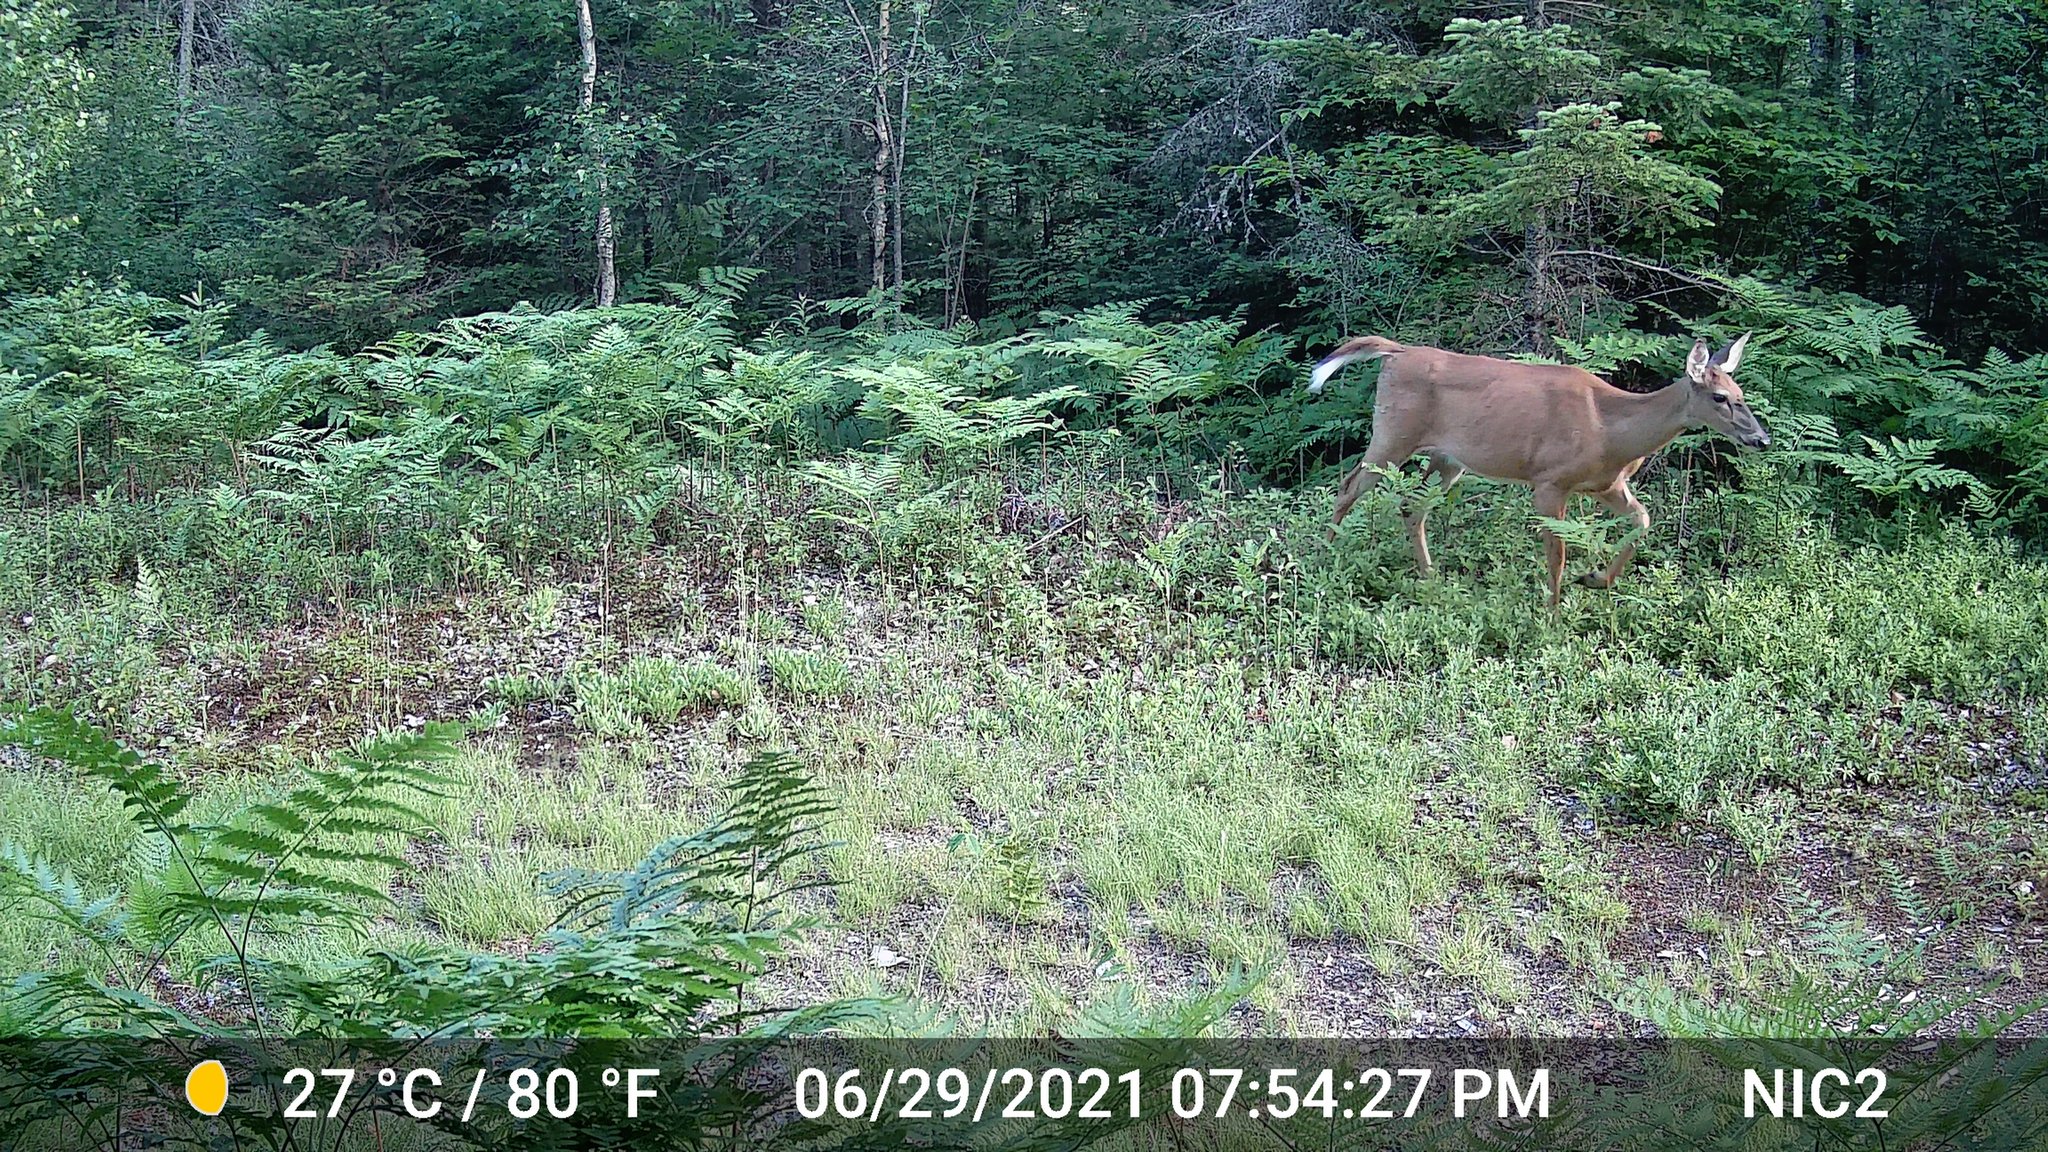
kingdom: Animalia
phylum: Chordata
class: Mammalia
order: Artiodactyla
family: Cervidae
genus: Odocoileus
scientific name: Odocoileus virginianus
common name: White-tailed deer
